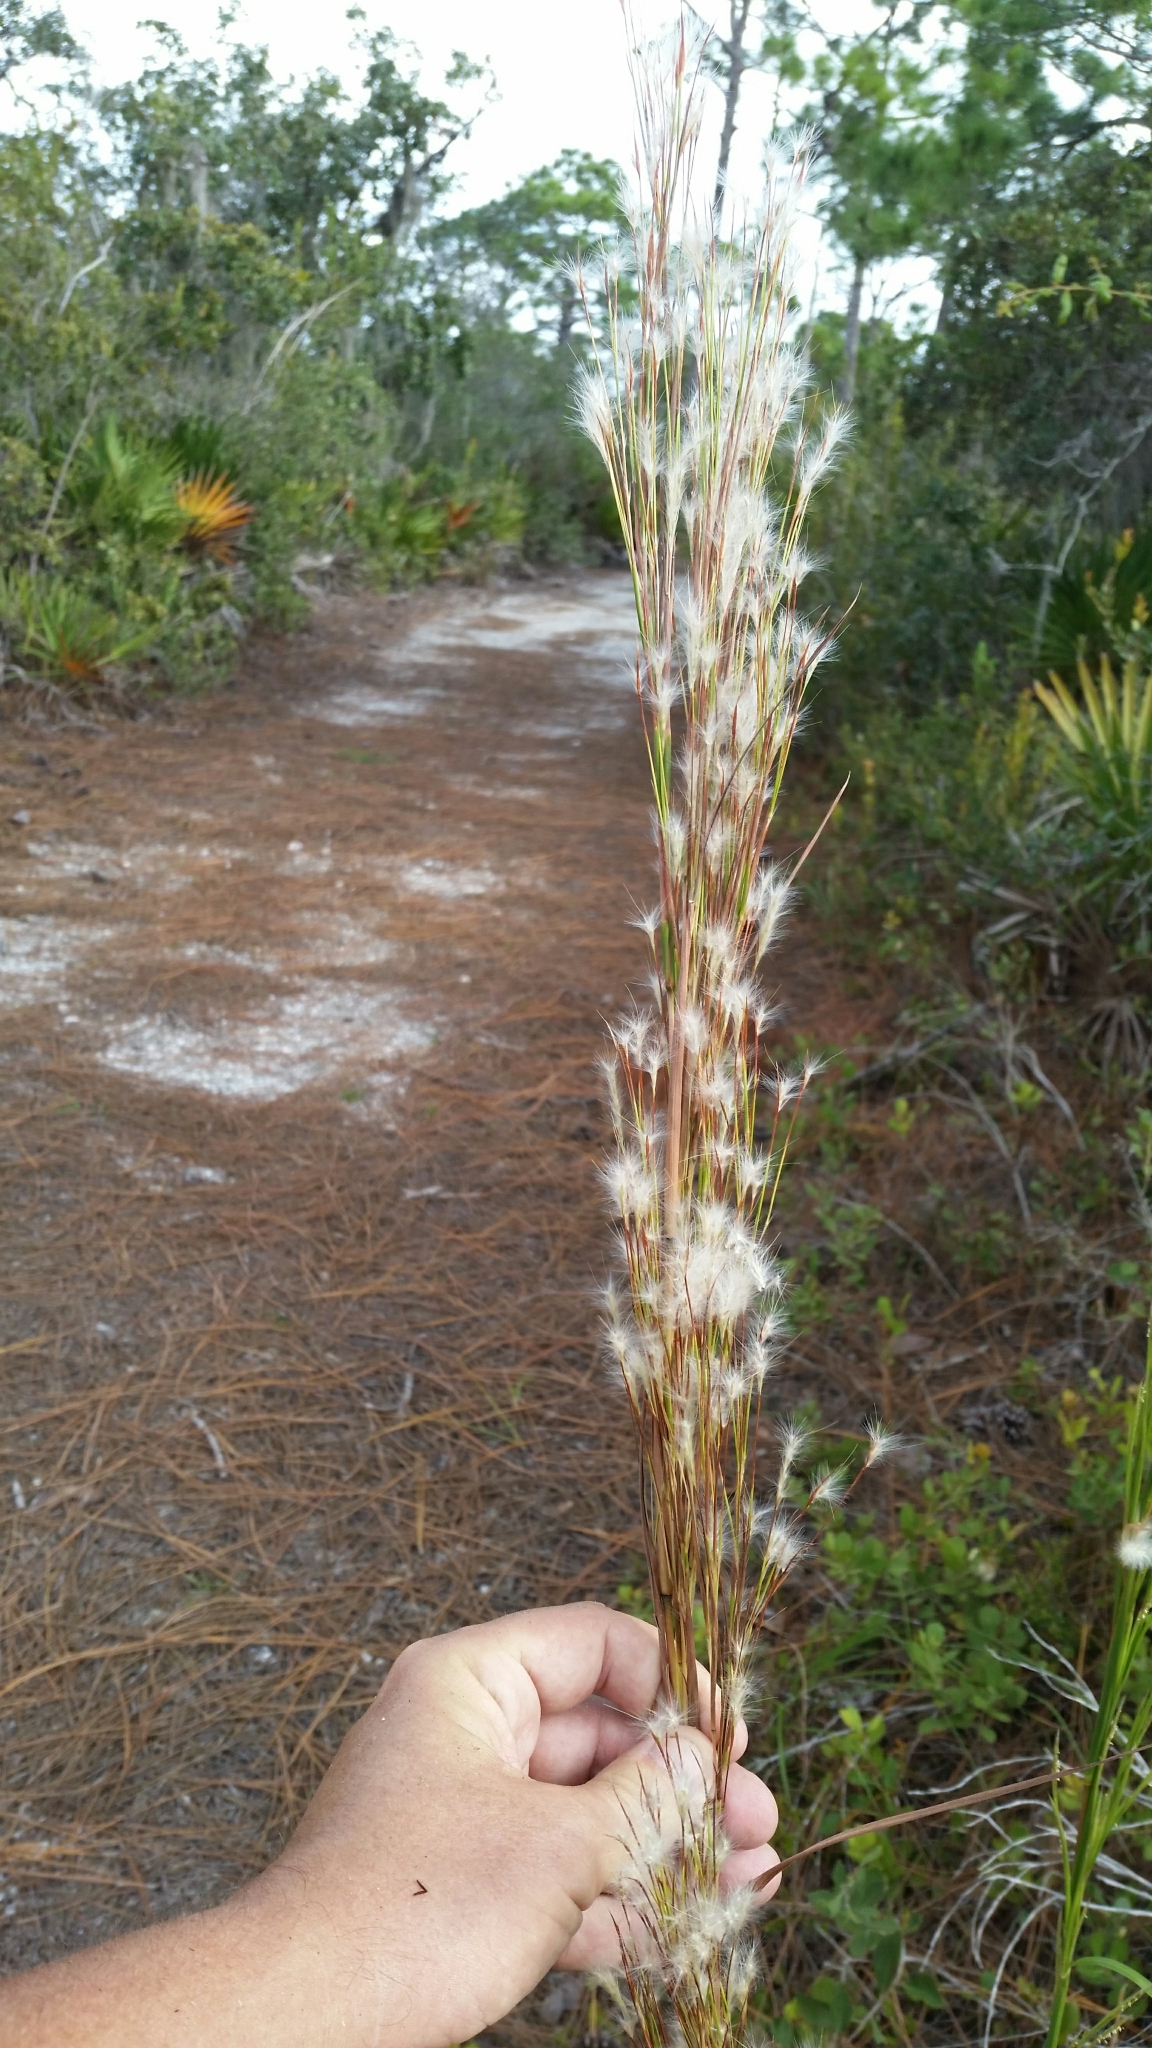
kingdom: Plantae
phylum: Tracheophyta
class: Liliopsida
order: Poales
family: Poaceae
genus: Andropogon
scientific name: Andropogon floridanus
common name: Florida bluestem
